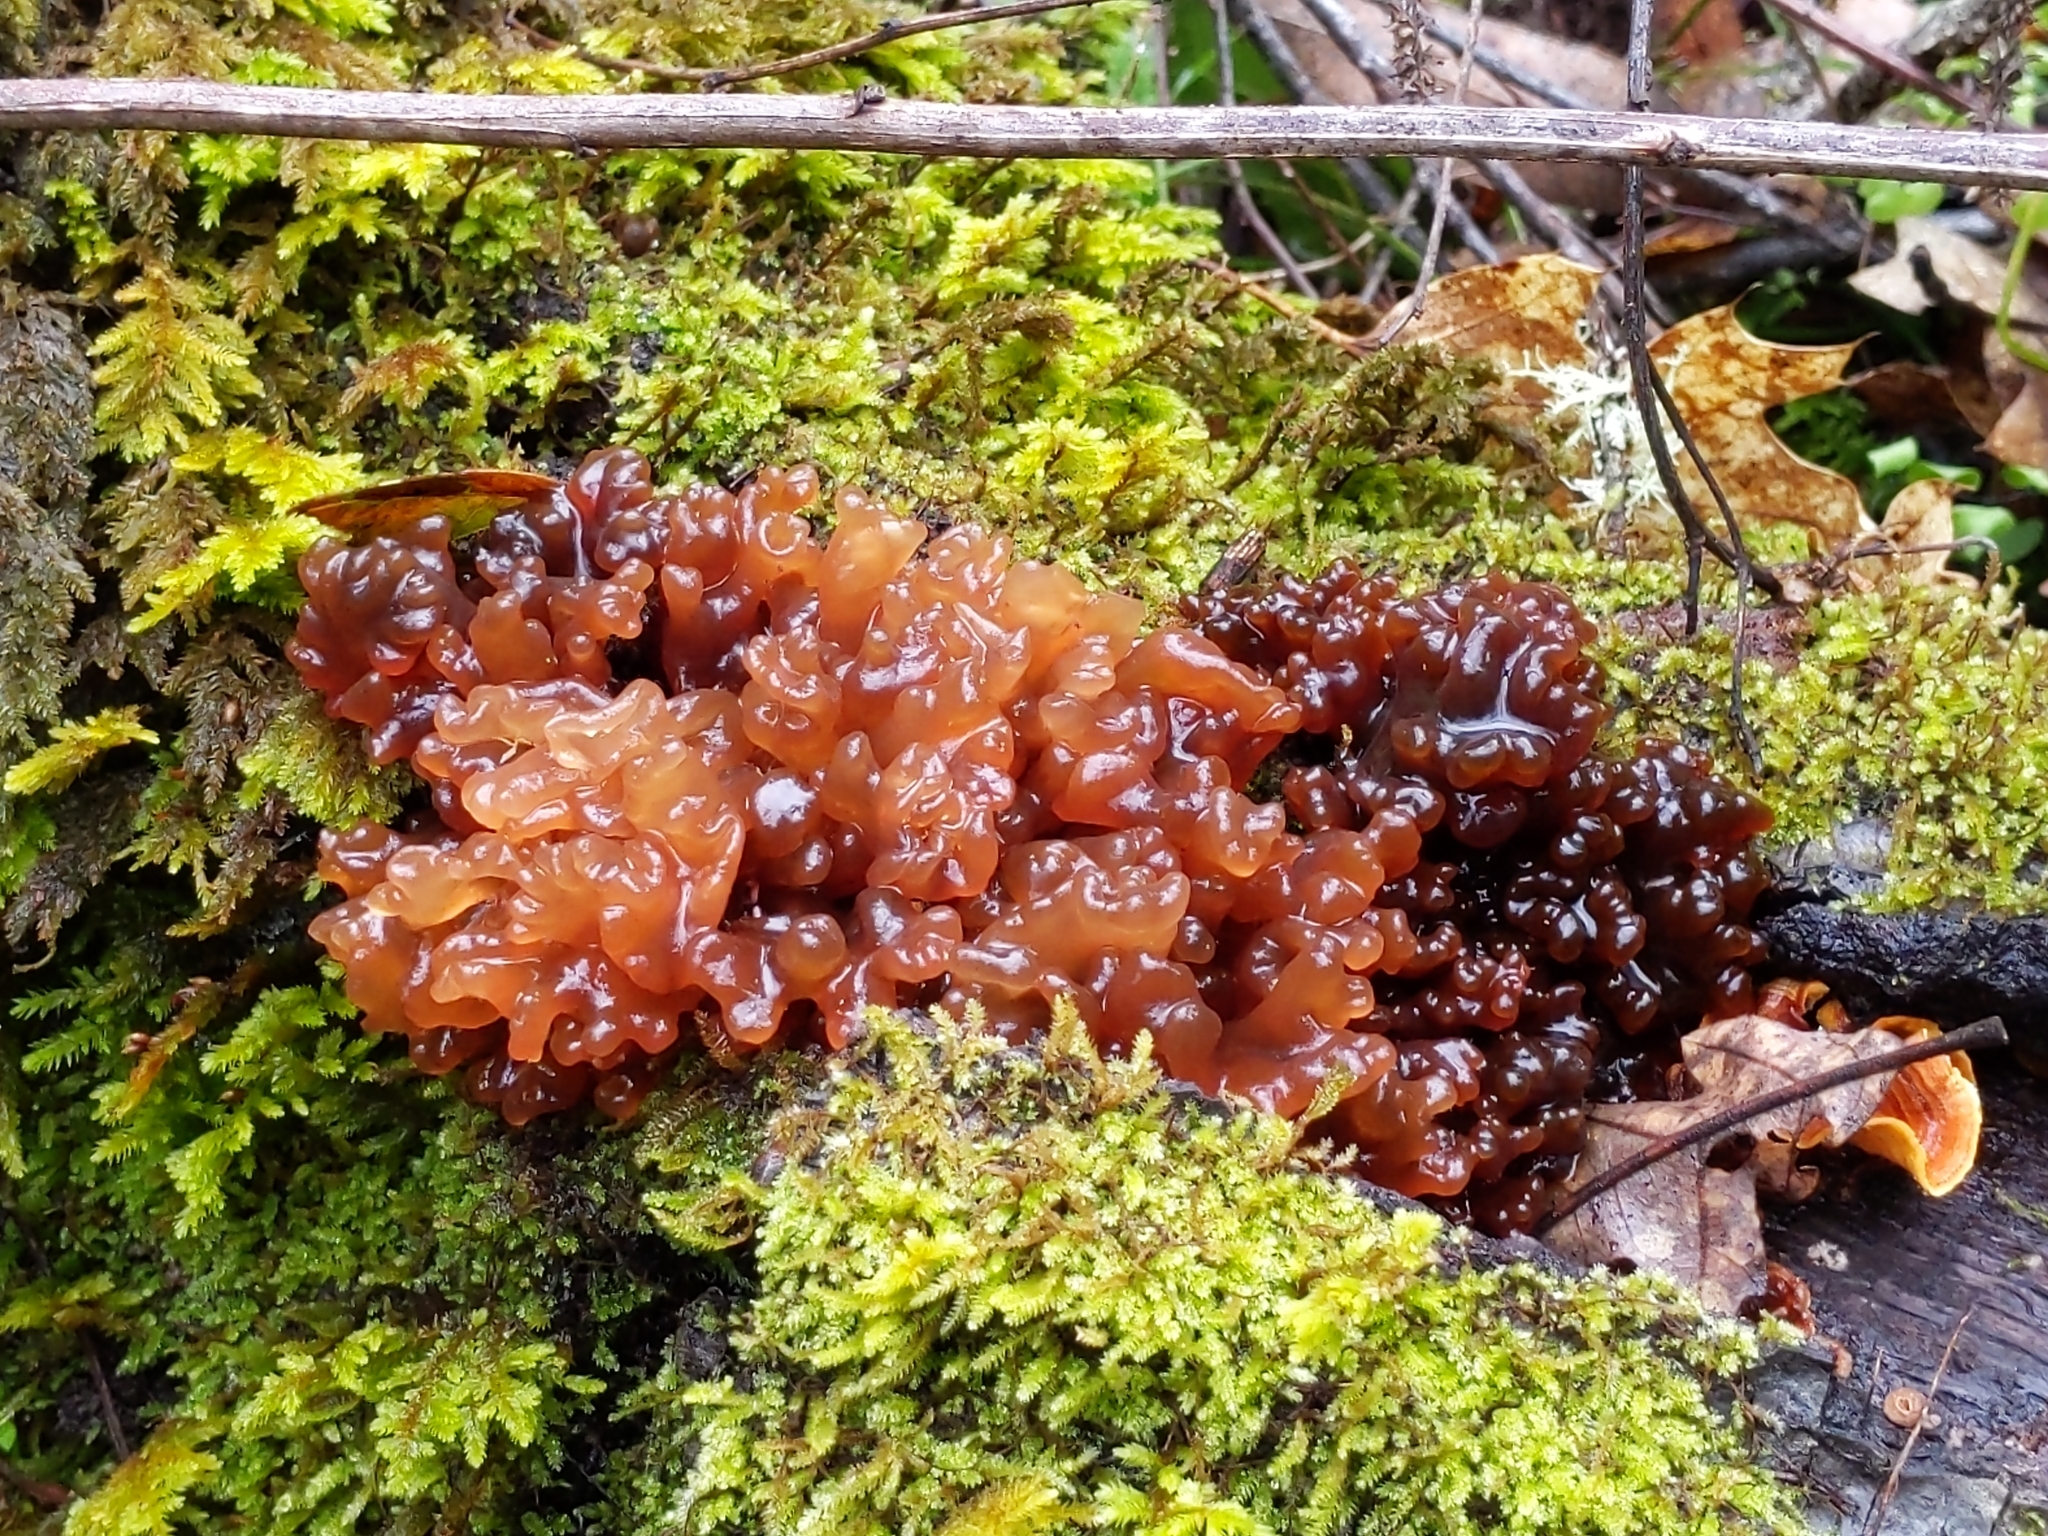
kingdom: Fungi
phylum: Basidiomycota
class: Tremellomycetes
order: Tremellales
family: Tremellaceae
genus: Phaeotremella
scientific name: Phaeotremella foliacea
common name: Leafy brain
